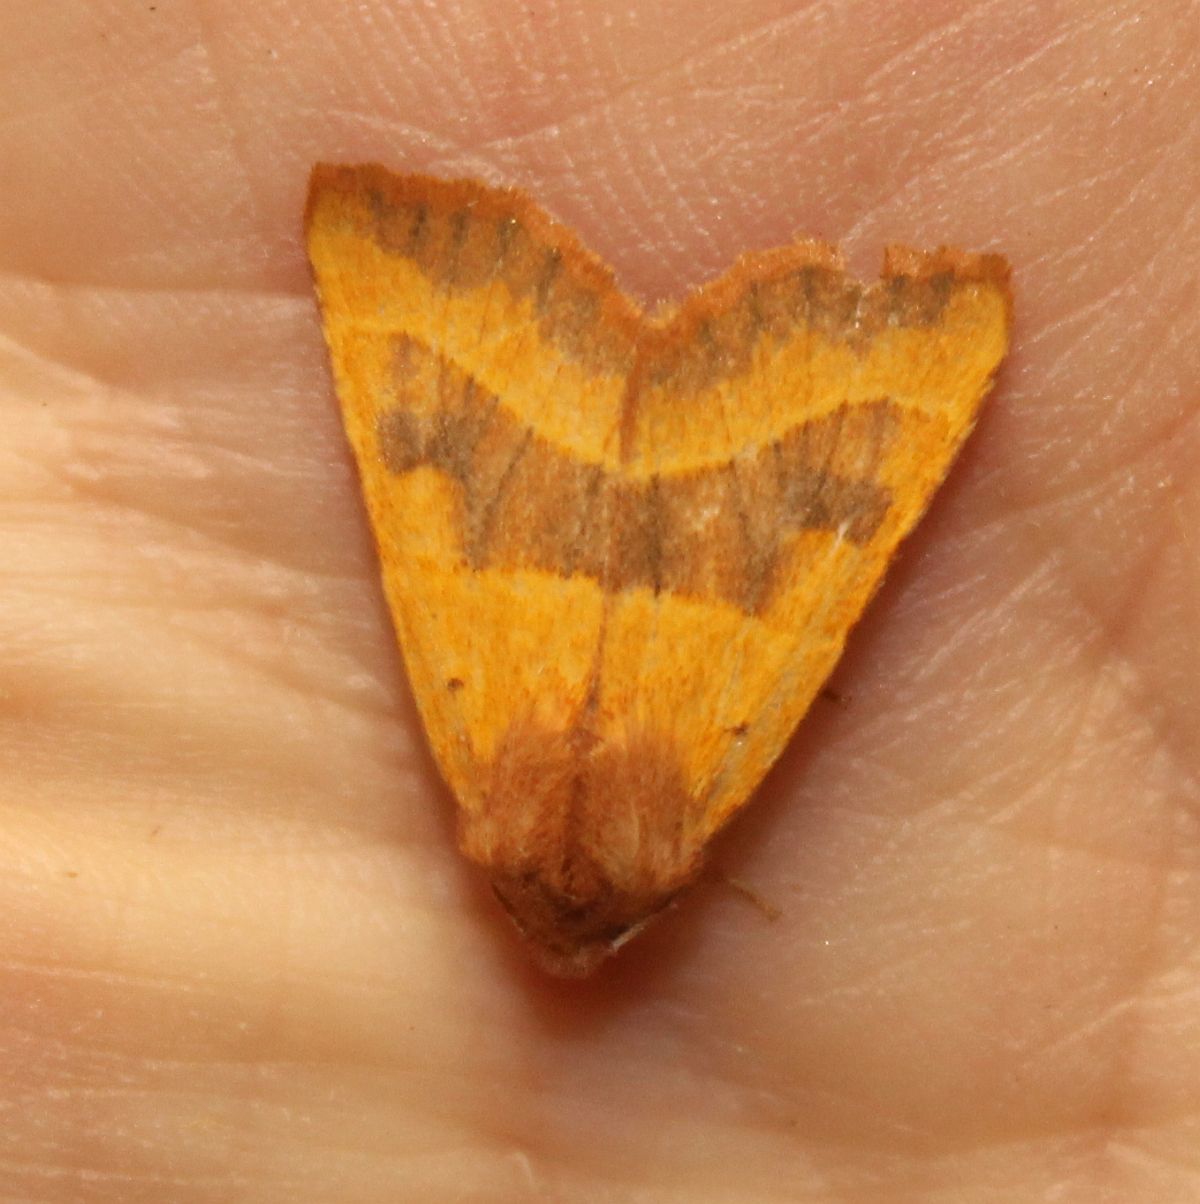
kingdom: Animalia
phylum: Arthropoda
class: Insecta
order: Lepidoptera
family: Noctuidae
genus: Atethmia
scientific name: Atethmia centrago
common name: Centre-barred sallow
